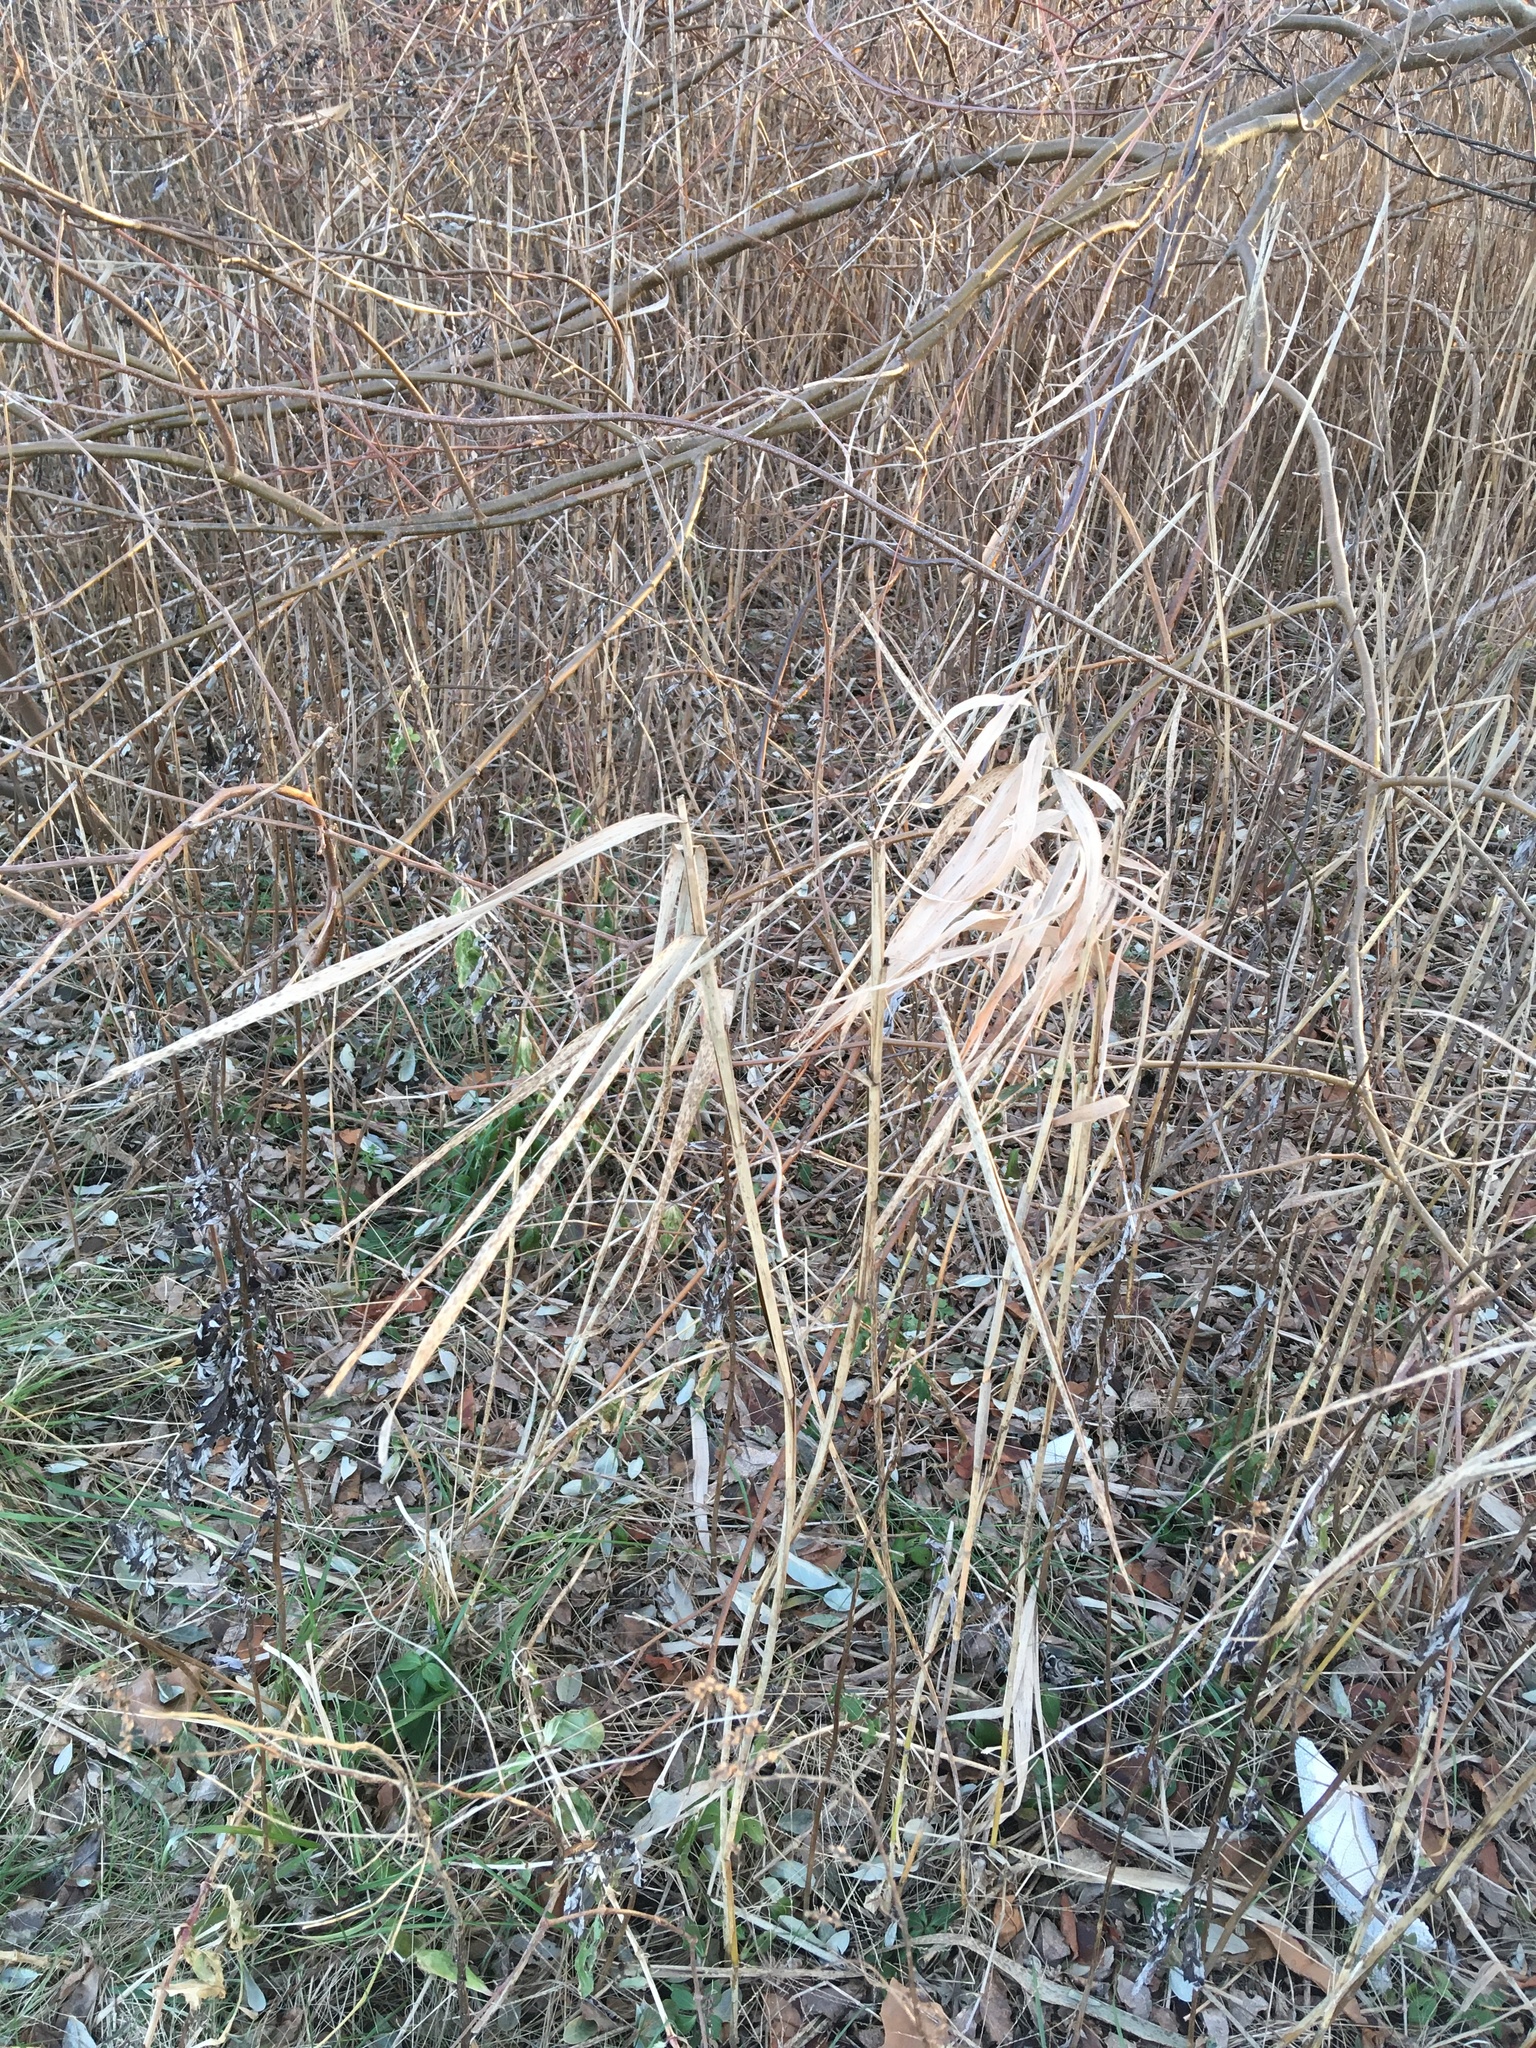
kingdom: Plantae
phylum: Tracheophyta
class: Liliopsida
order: Poales
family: Poaceae
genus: Phragmites
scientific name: Phragmites australis
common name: Common reed
